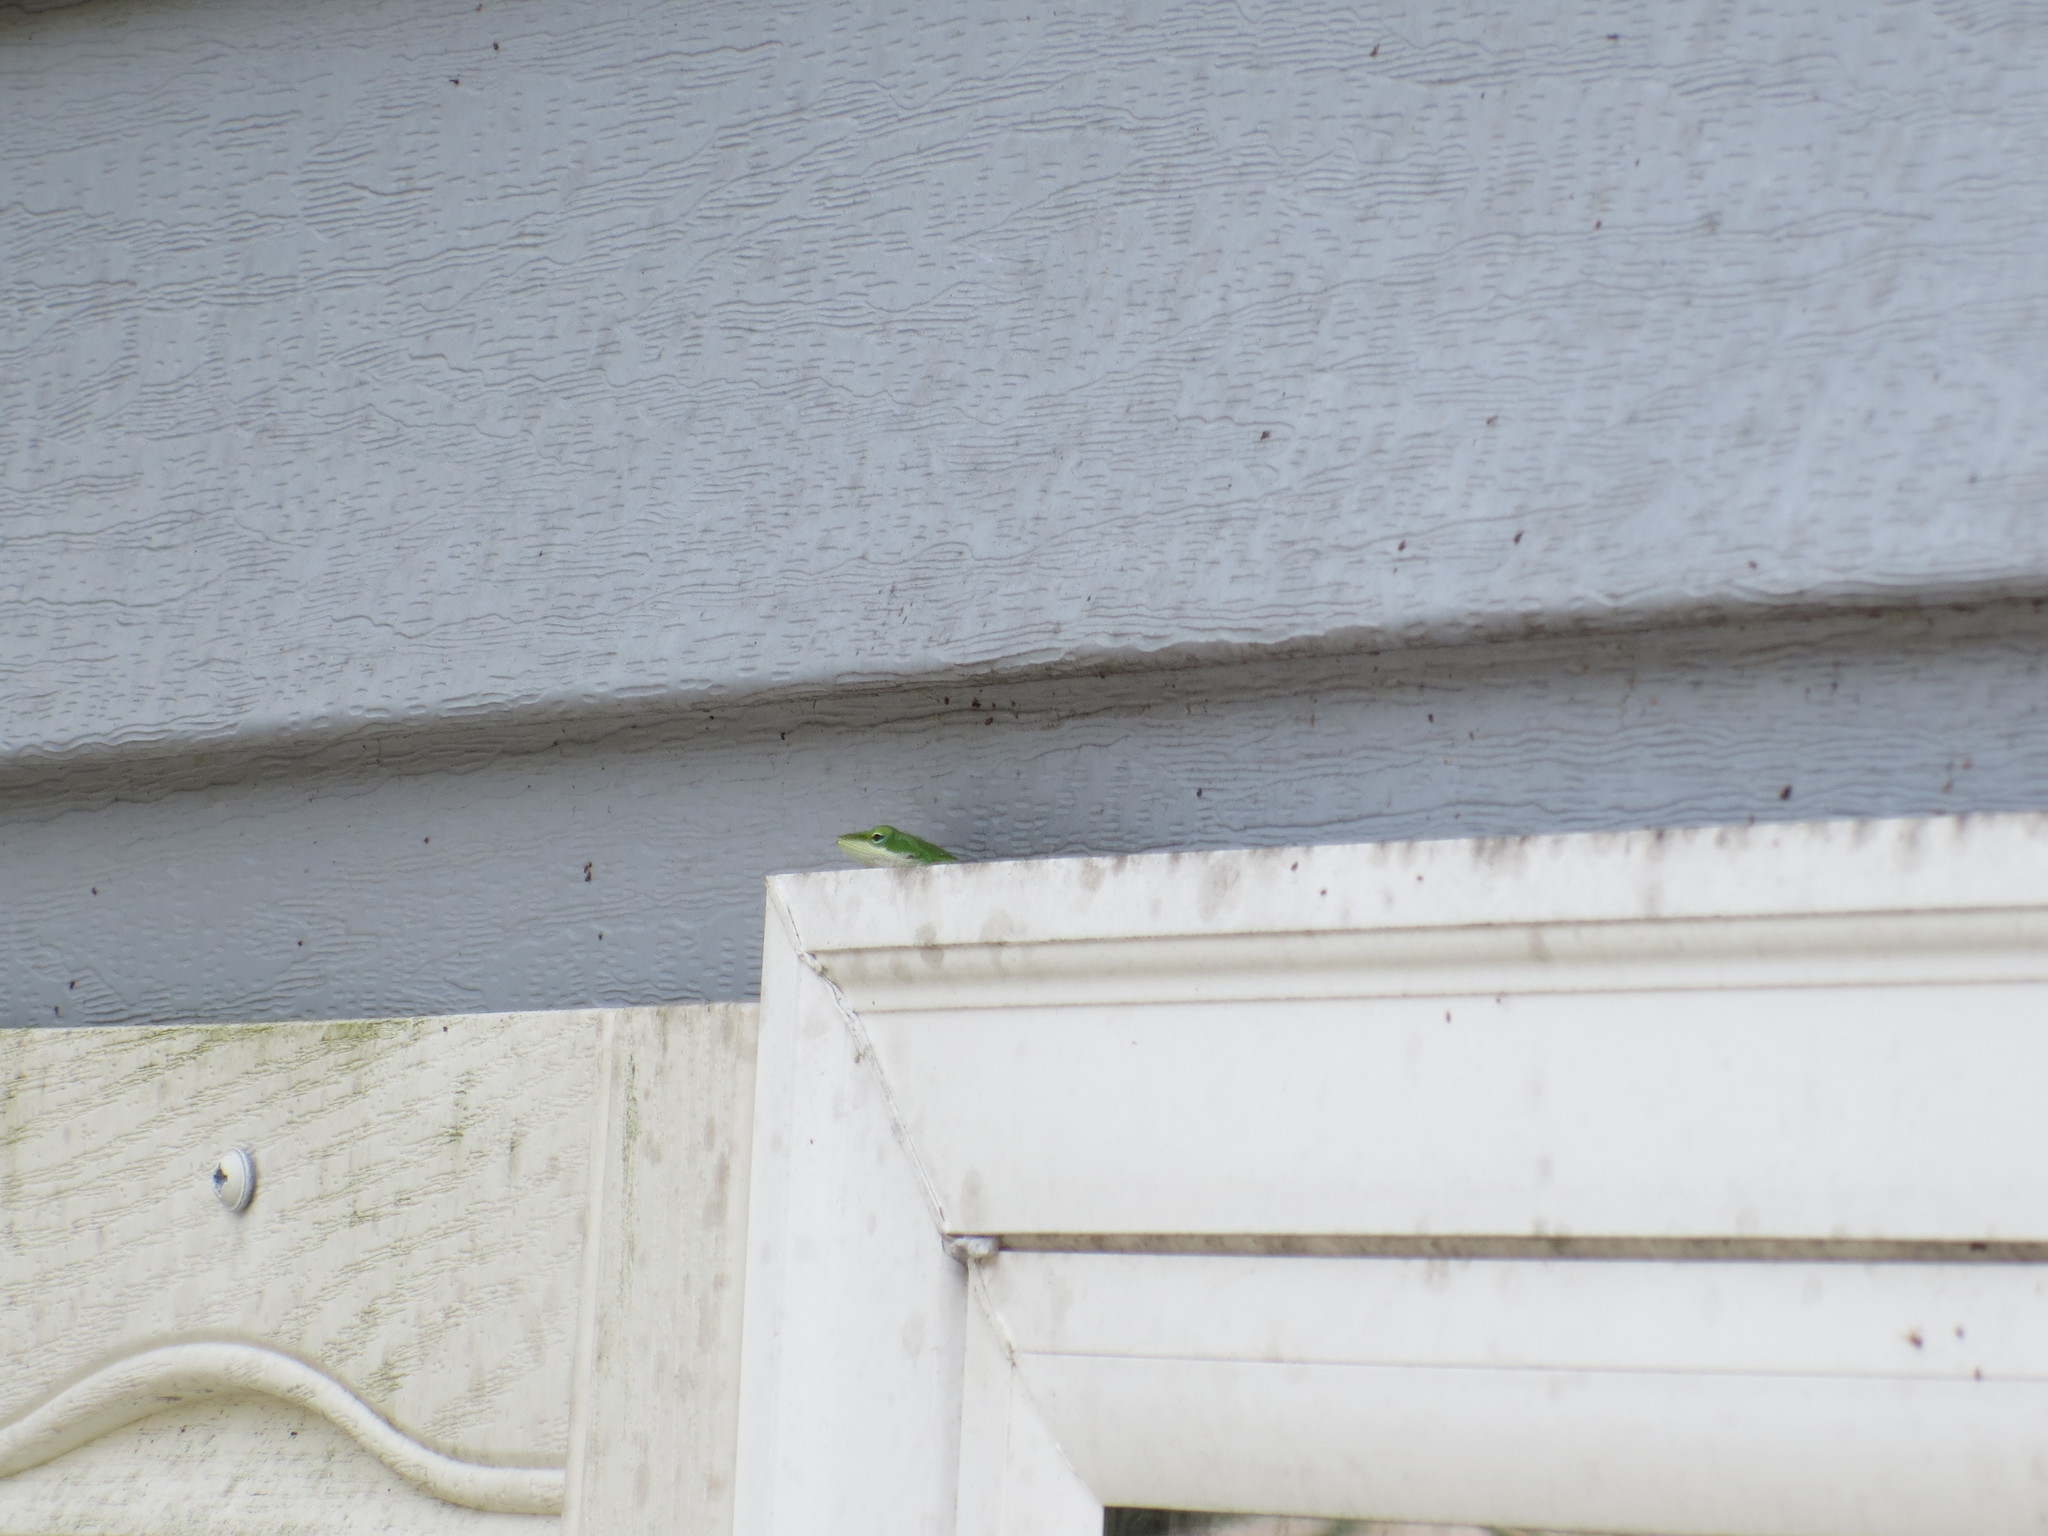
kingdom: Animalia
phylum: Chordata
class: Squamata
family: Dactyloidae
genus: Anolis
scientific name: Anolis carolinensis
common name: Green anole
